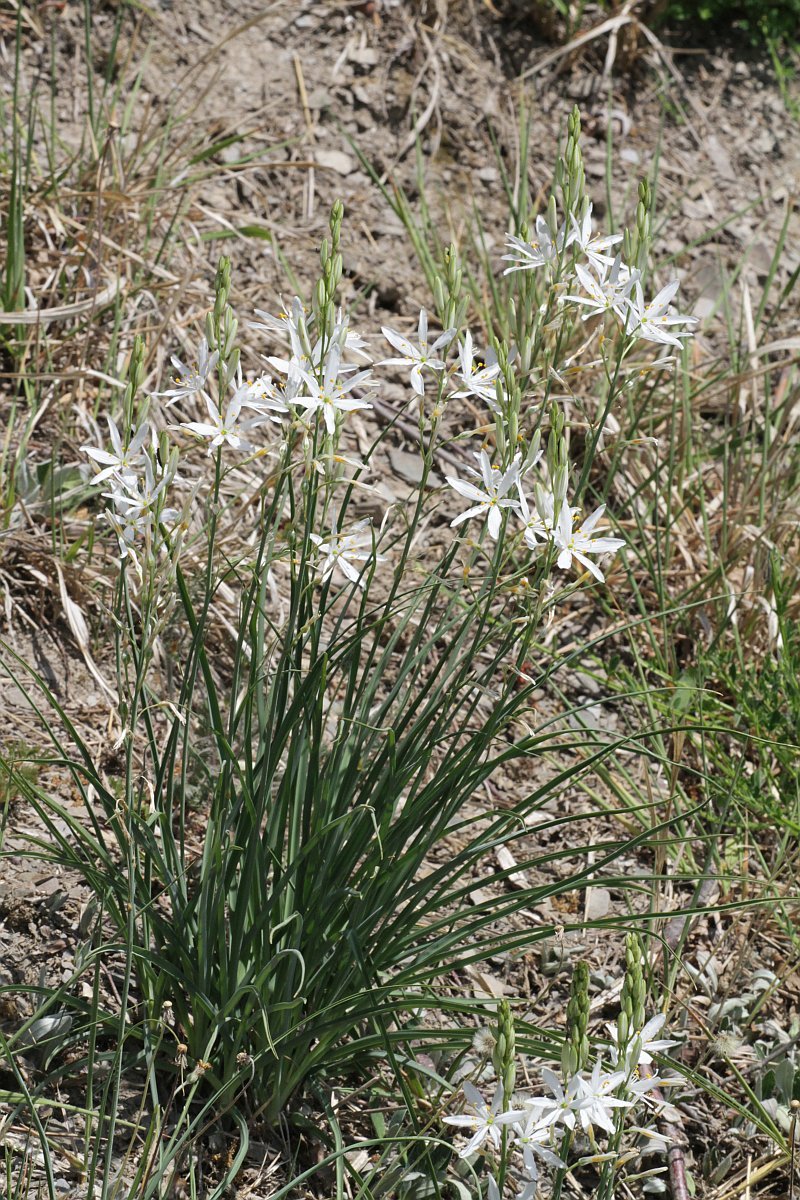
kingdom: Plantae
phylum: Tracheophyta
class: Liliopsida
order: Asparagales
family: Asparagaceae
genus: Anthericum
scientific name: Anthericum liliago
